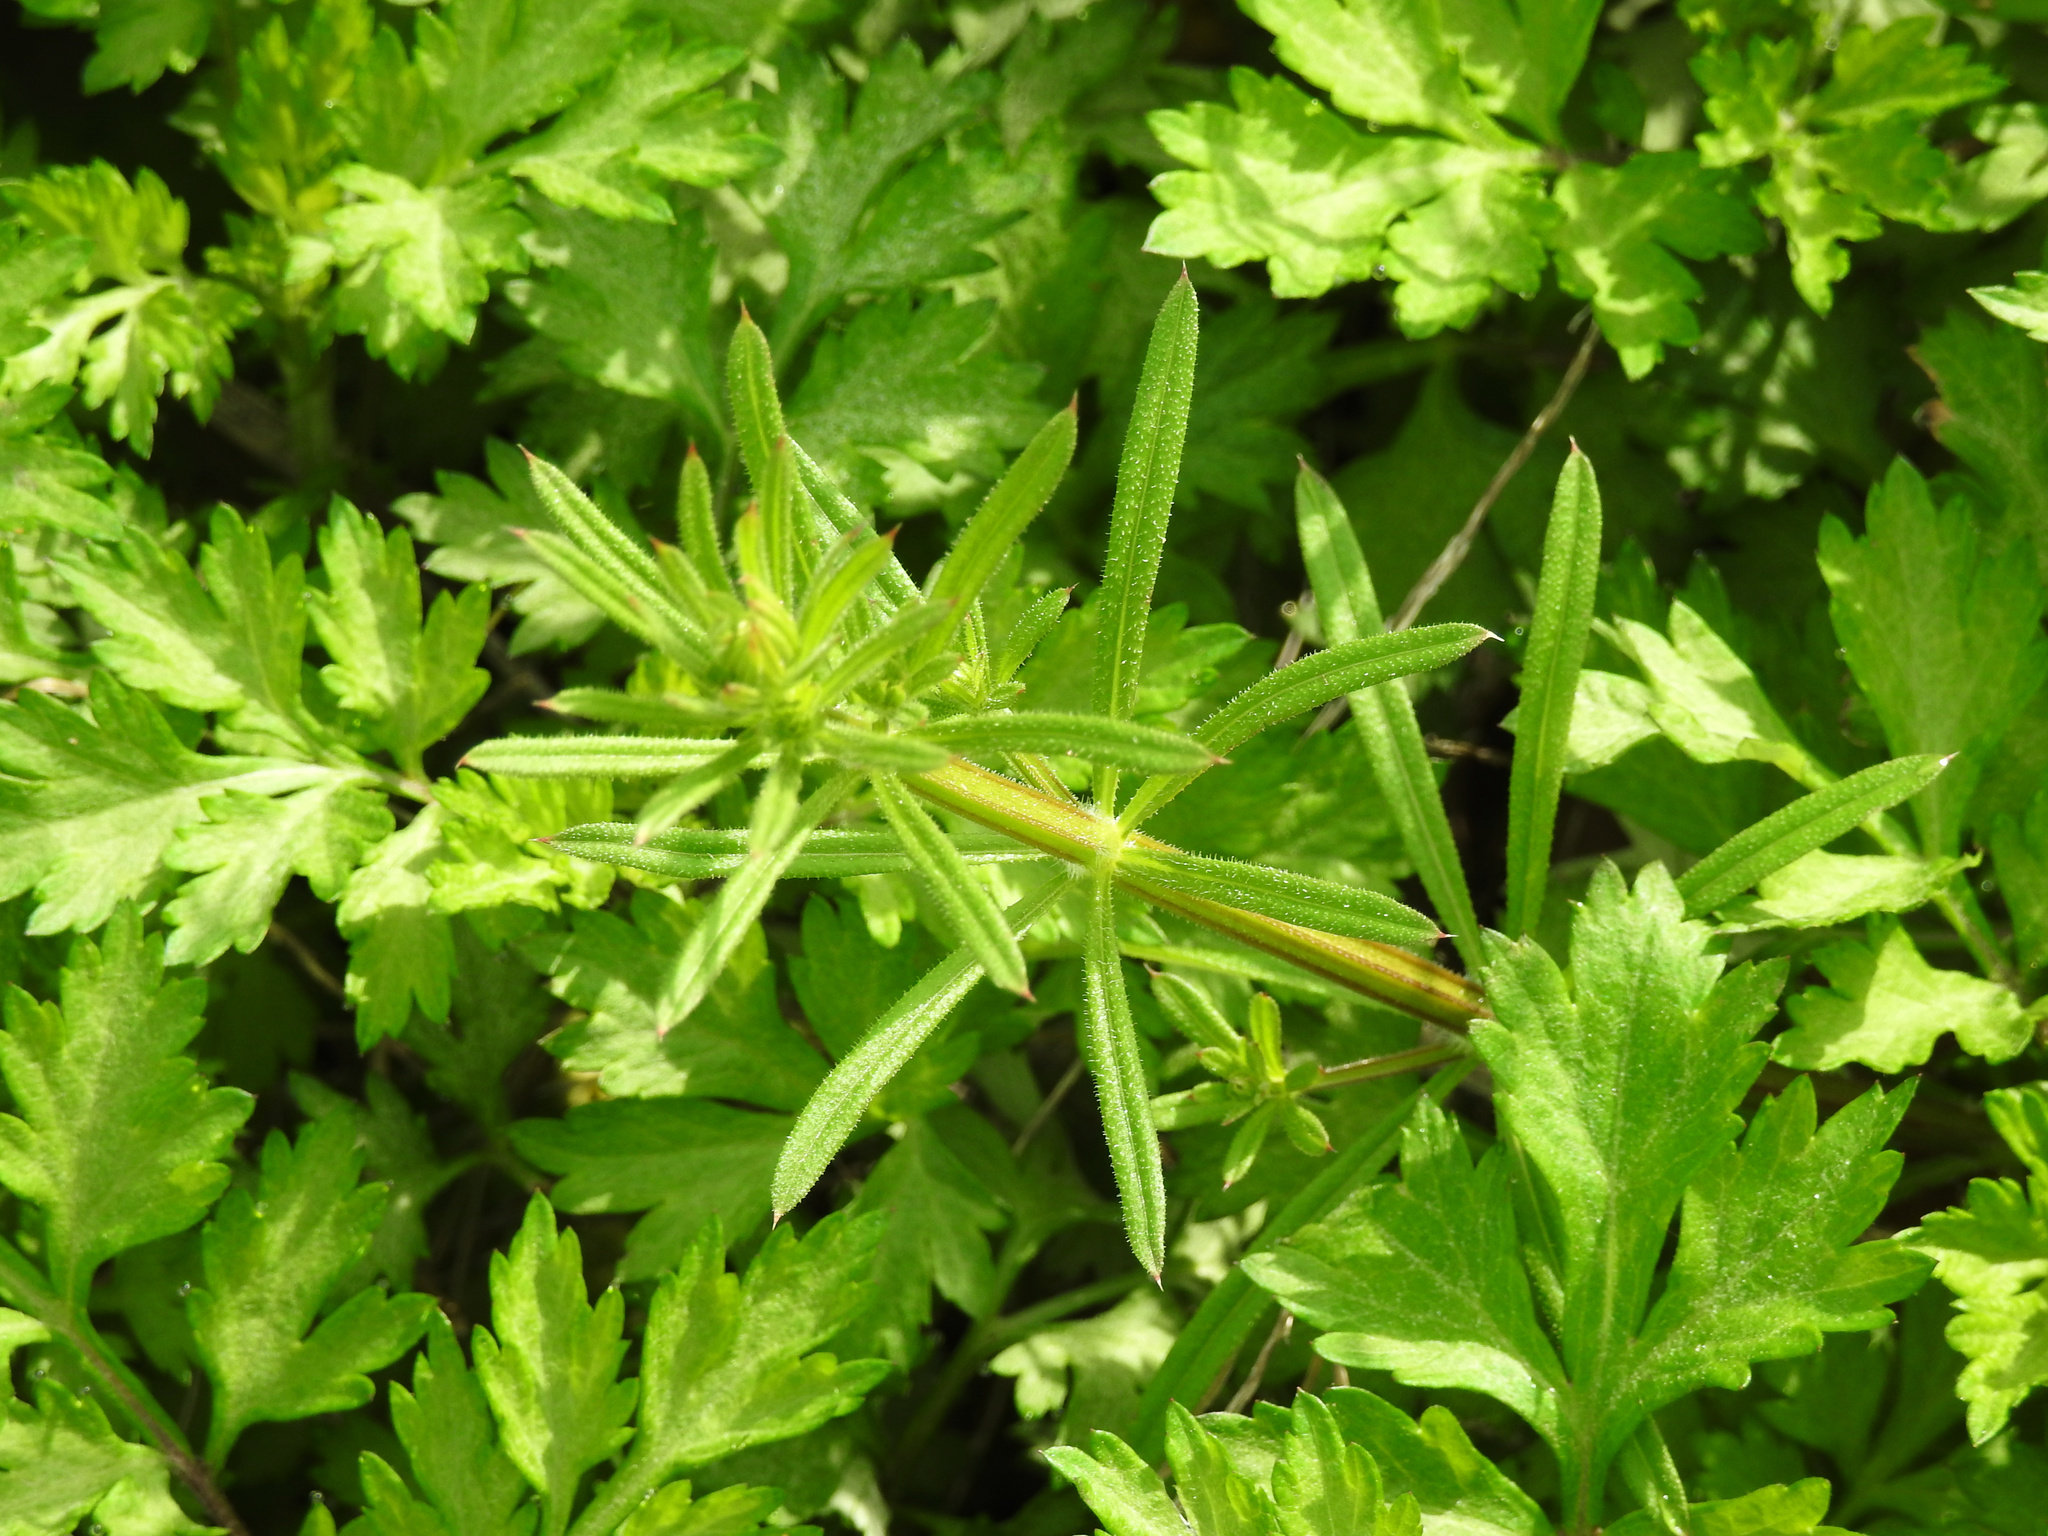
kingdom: Plantae
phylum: Tracheophyta
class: Magnoliopsida
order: Gentianales
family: Rubiaceae
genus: Galium
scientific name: Galium aparine
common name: Cleavers
